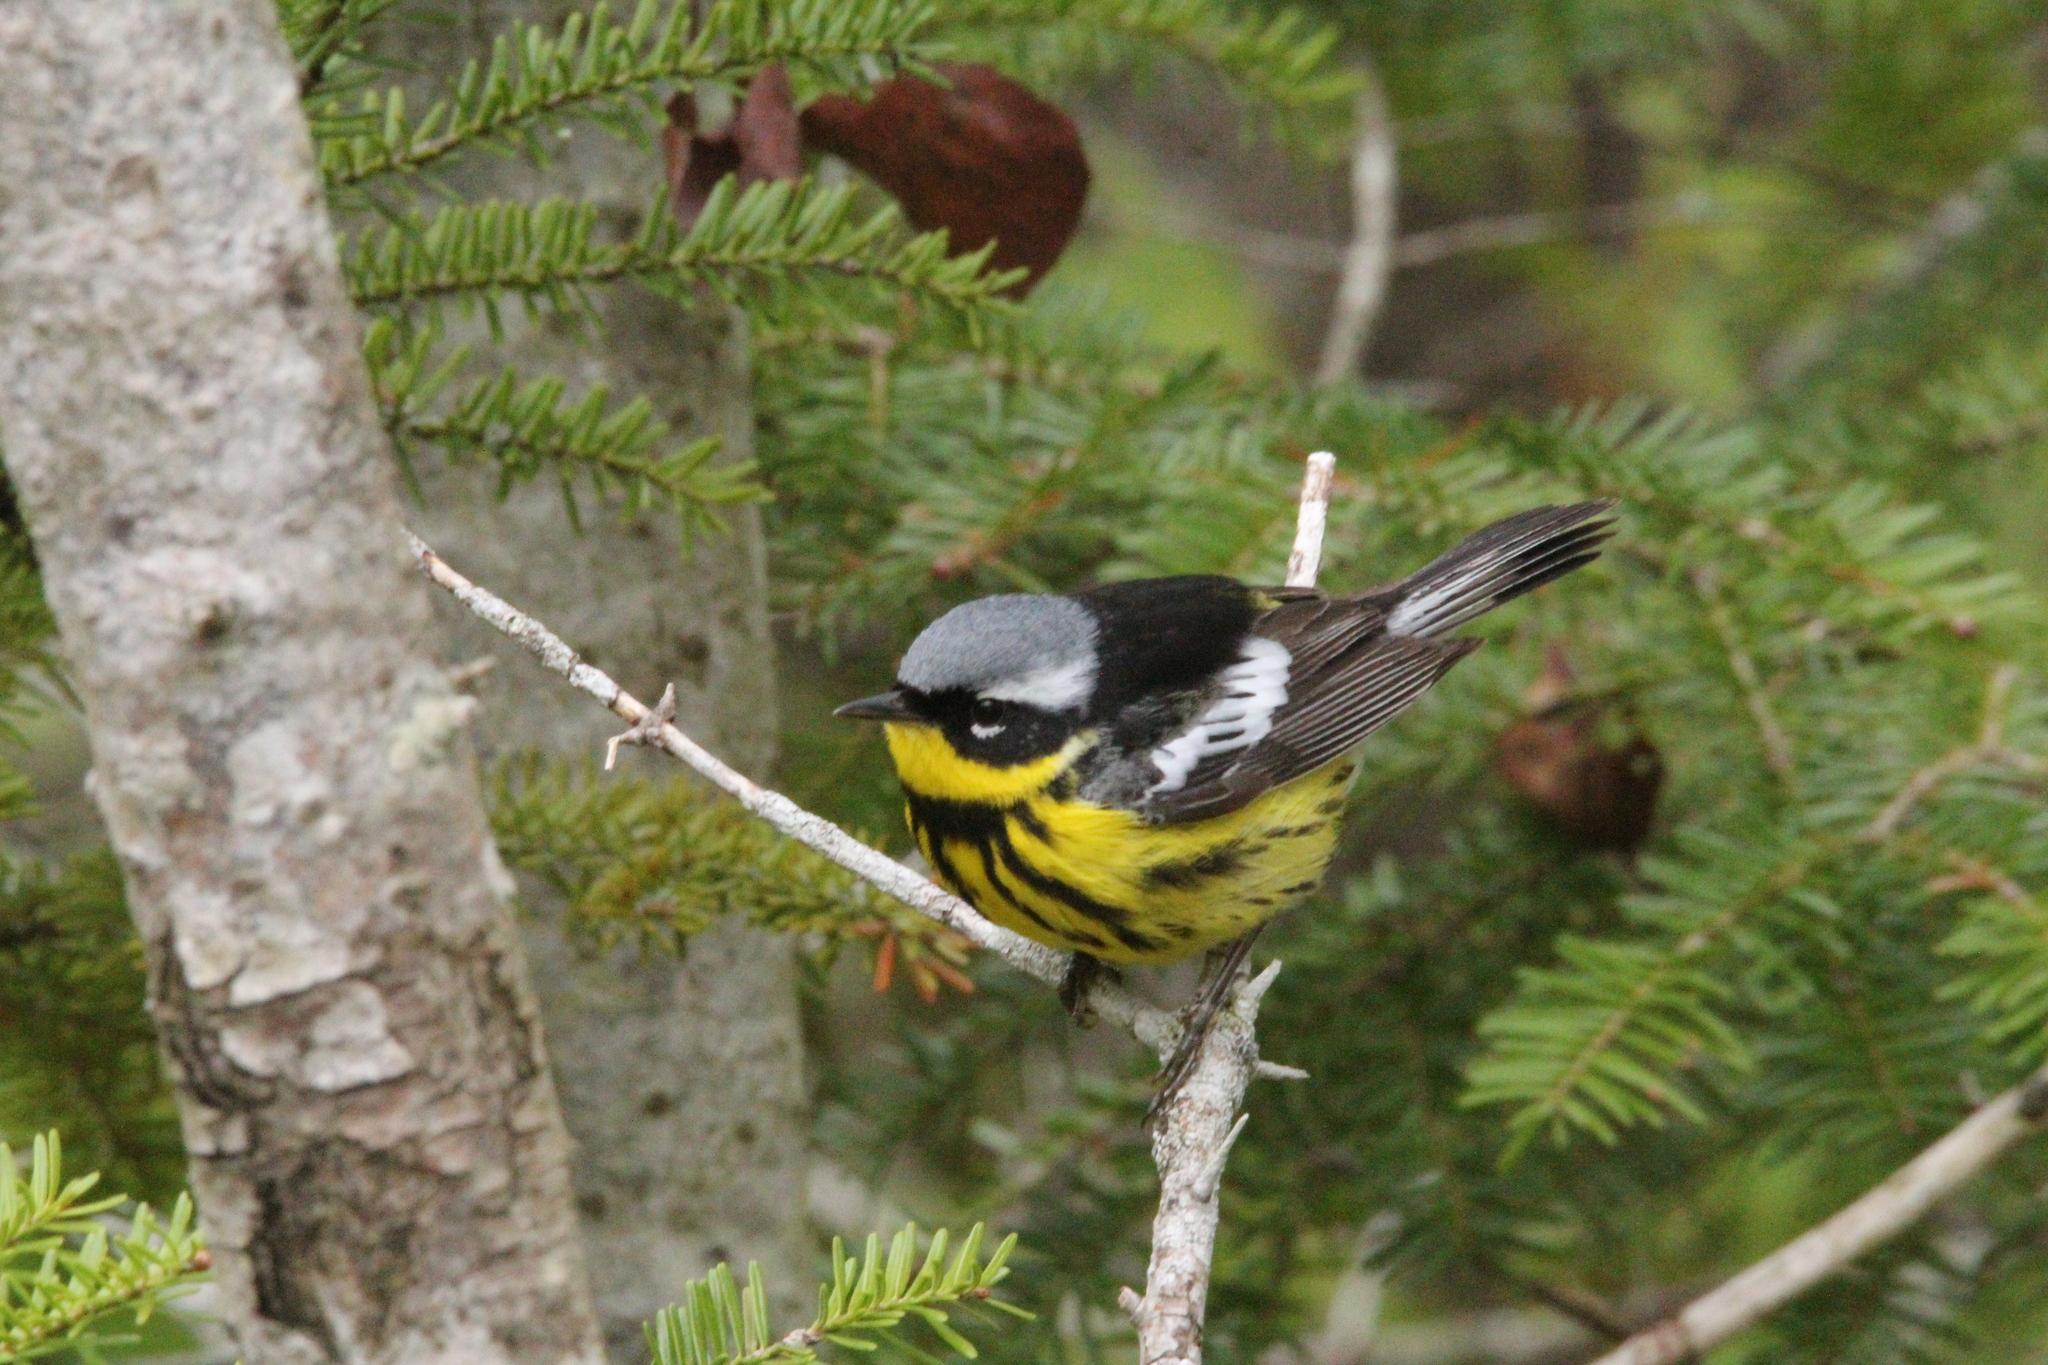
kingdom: Animalia
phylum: Chordata
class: Aves
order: Passeriformes
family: Parulidae
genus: Setophaga
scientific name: Setophaga magnolia
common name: Magnolia warbler
